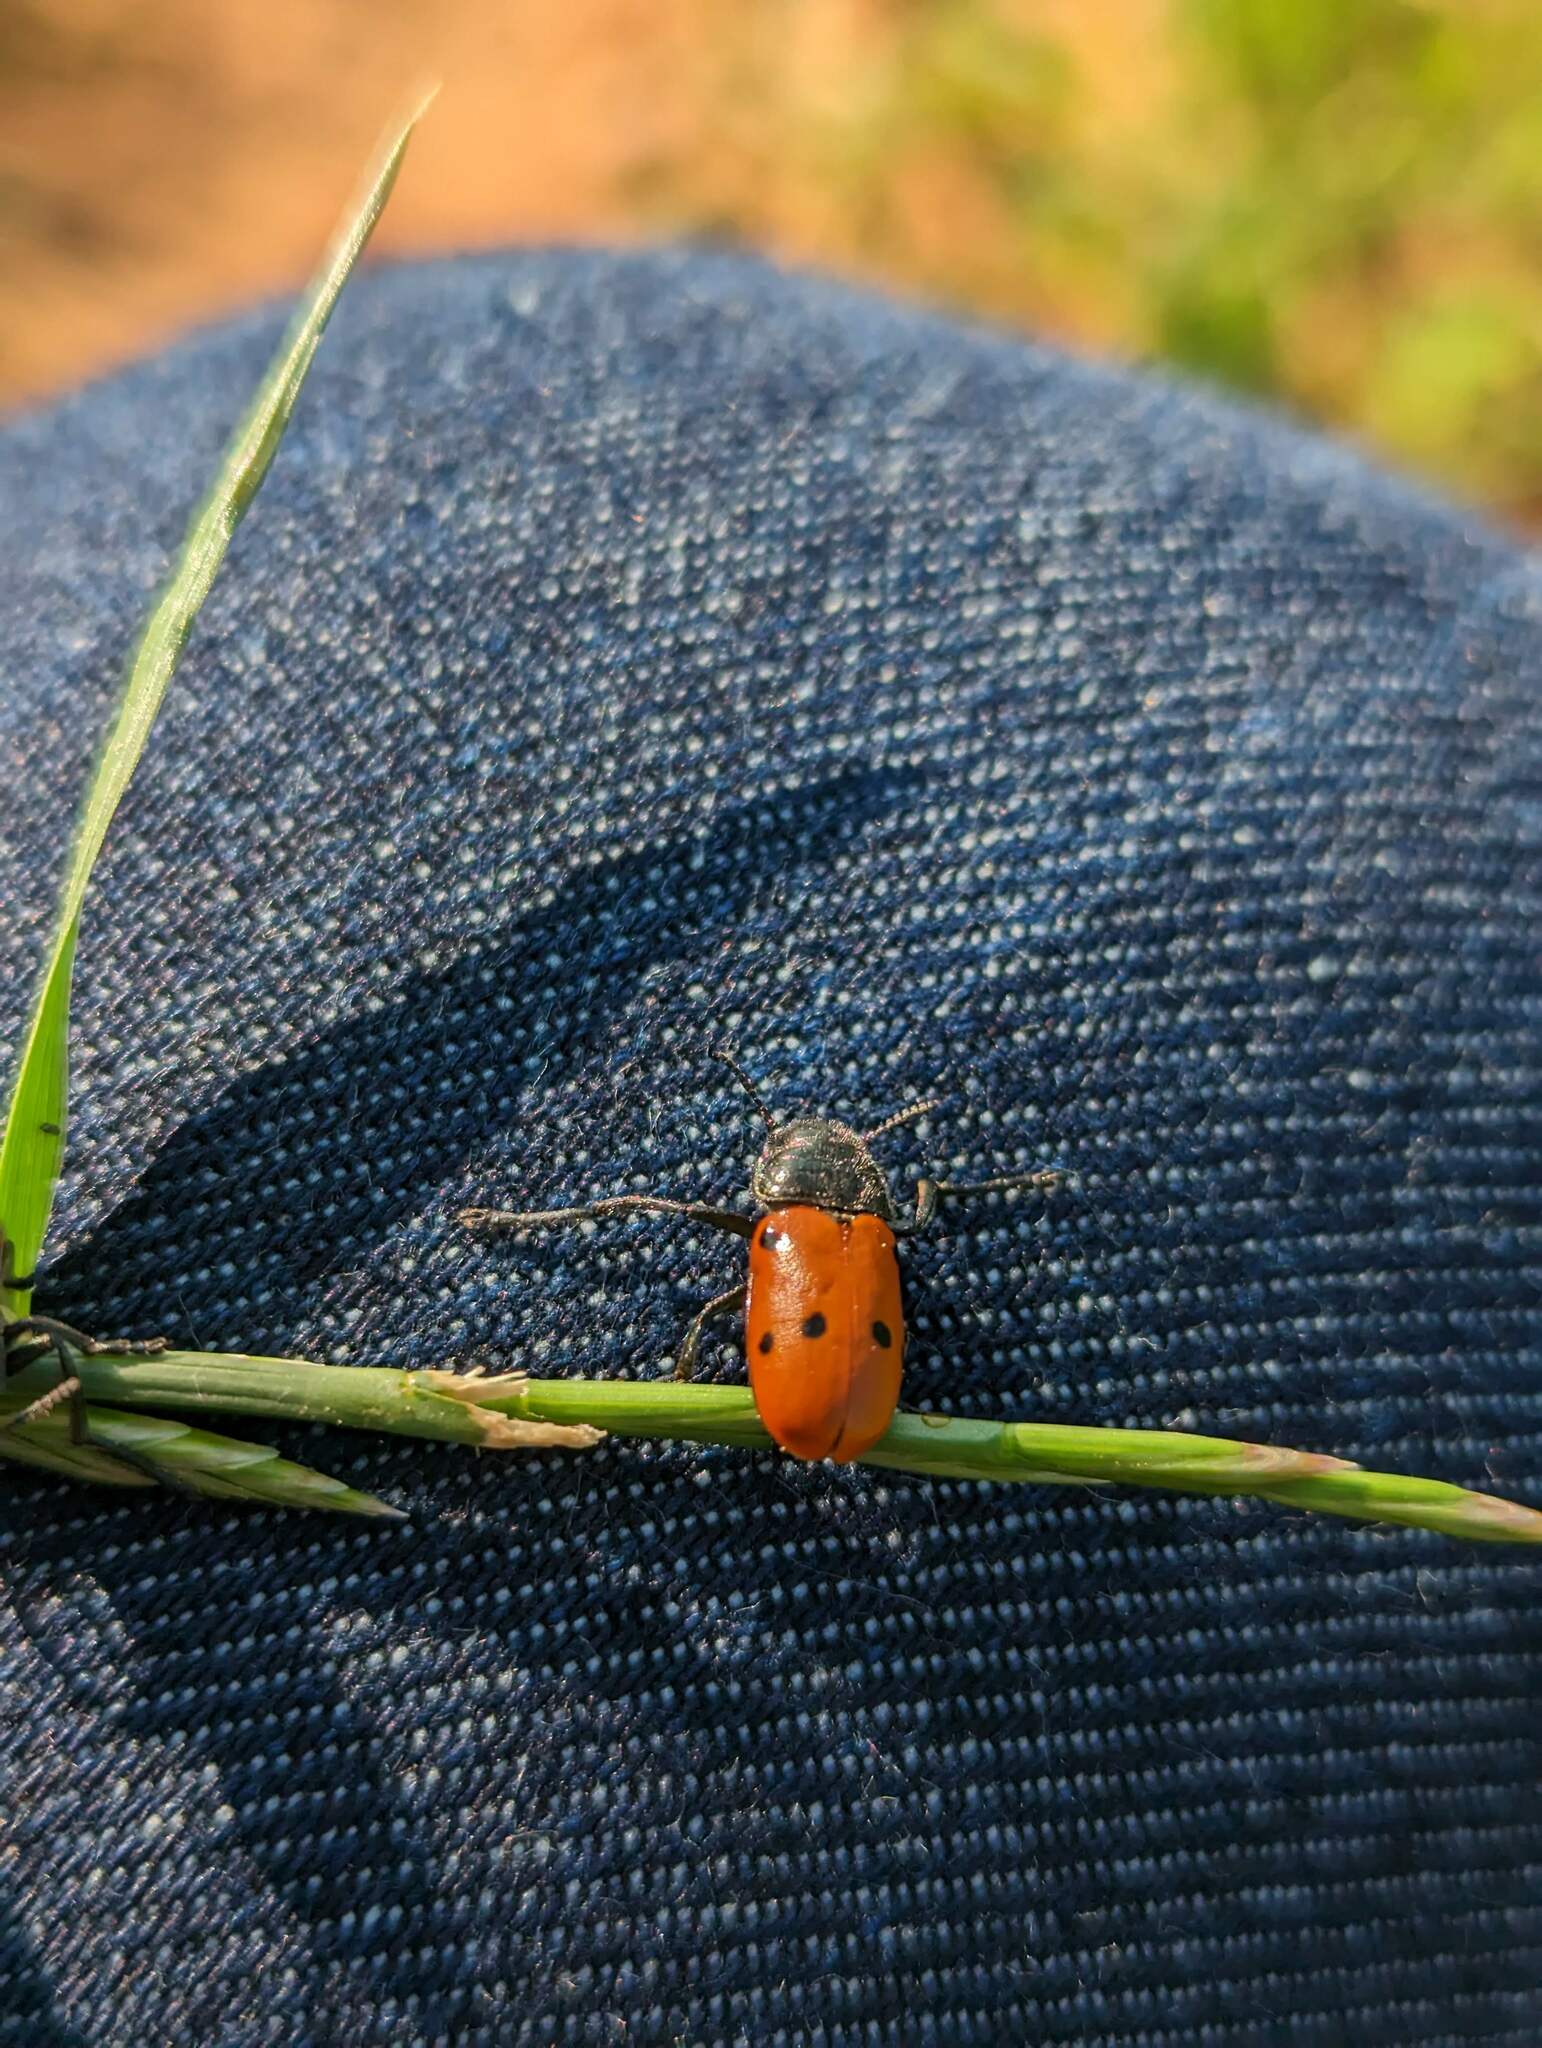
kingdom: Animalia
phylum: Arthropoda
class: Insecta
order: Coleoptera
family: Chrysomelidae
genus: Lachnaia
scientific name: Lachnaia paradoxa
